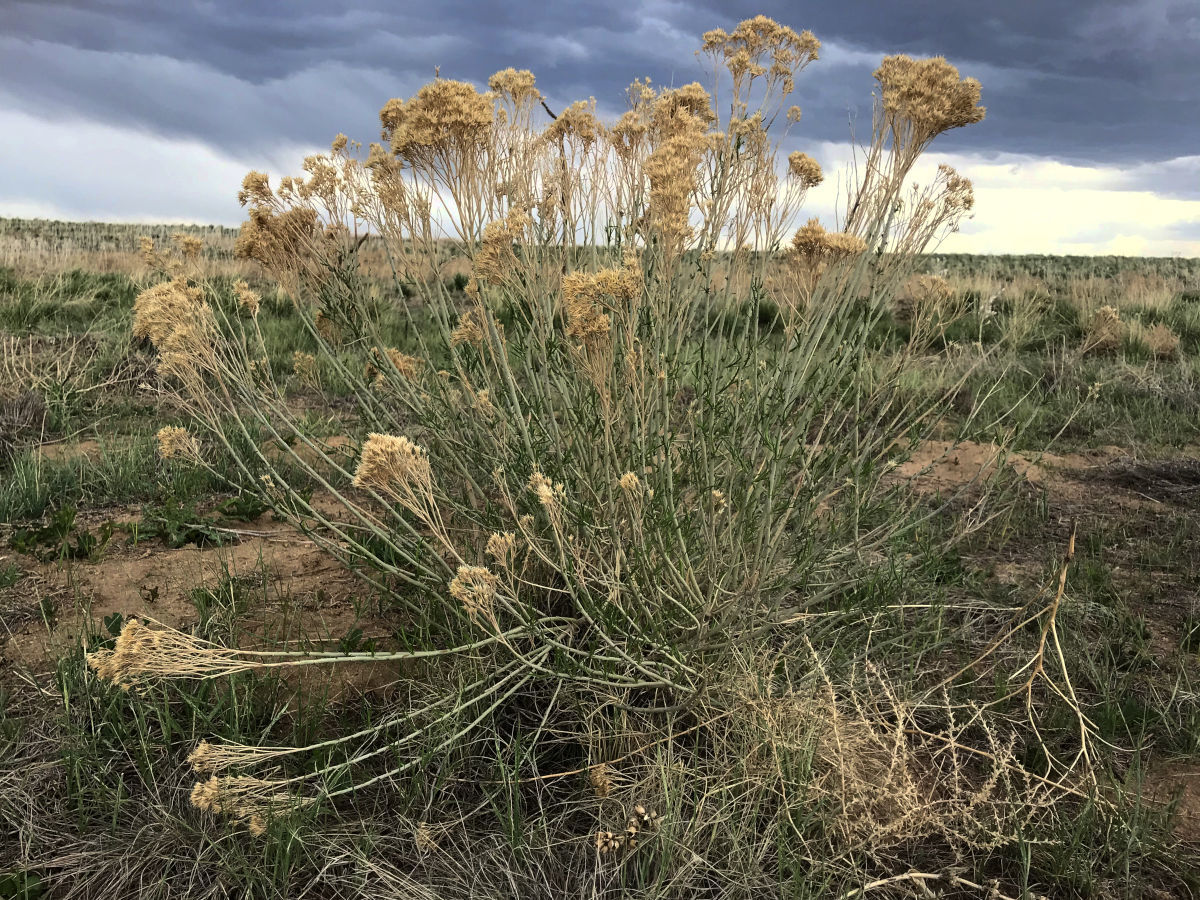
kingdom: Plantae
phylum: Tracheophyta
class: Magnoliopsida
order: Asterales
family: Asteraceae
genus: Ericameria
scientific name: Ericameria nauseosa
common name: Rubber rabbitbrush
